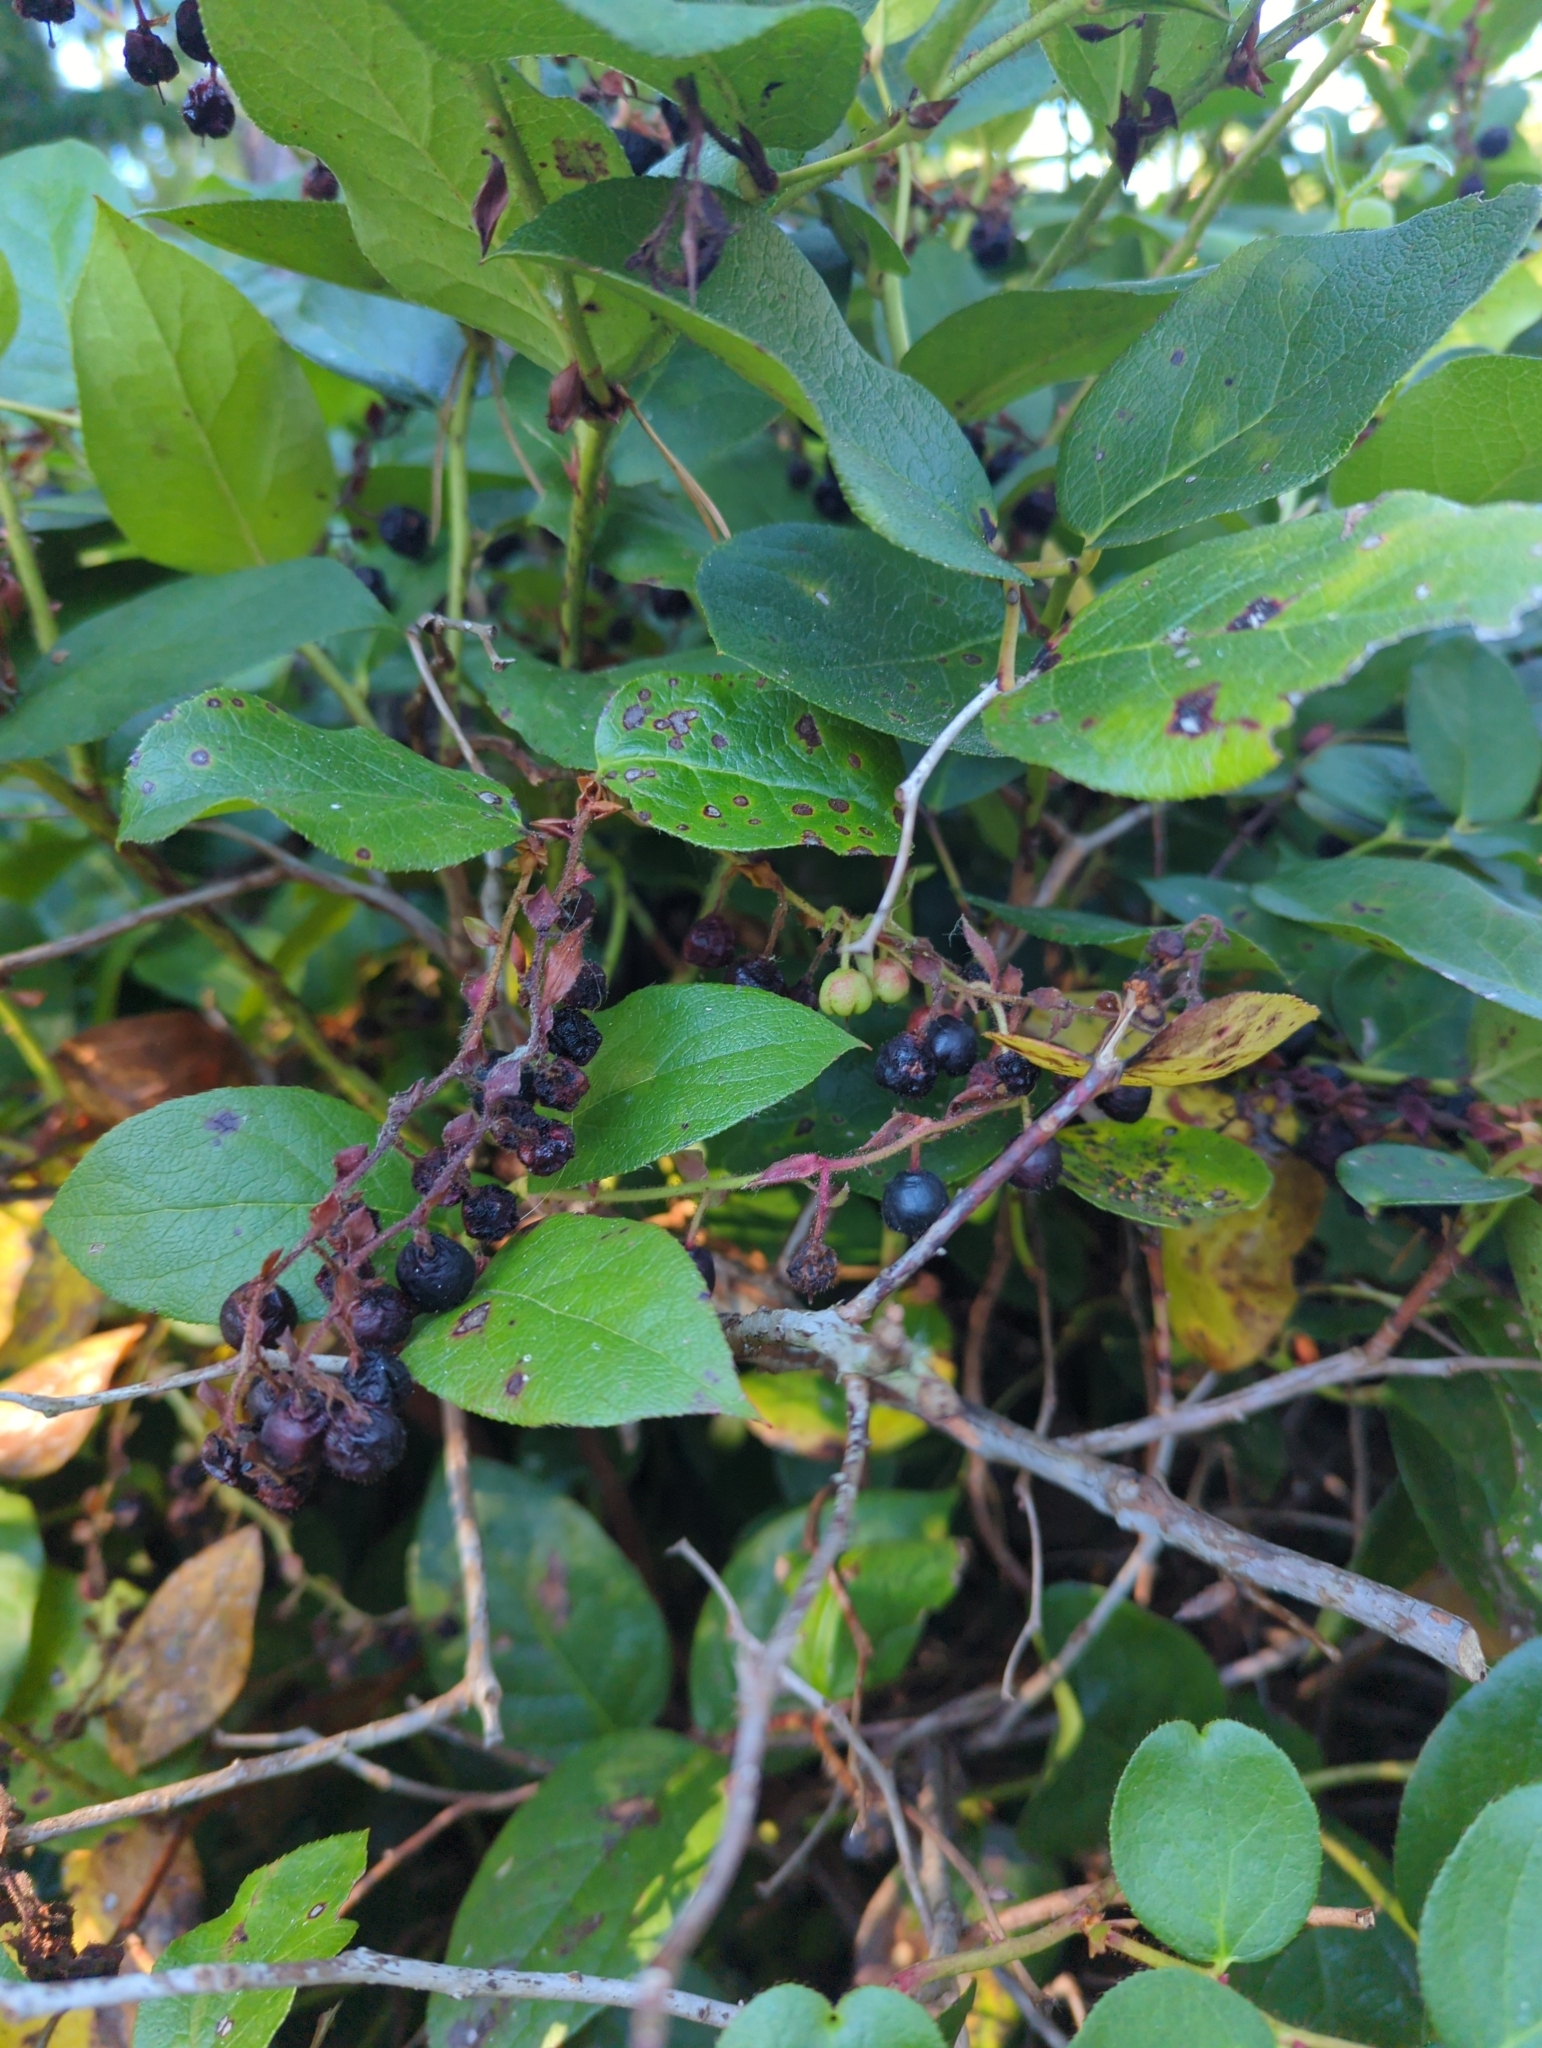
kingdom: Plantae
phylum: Tracheophyta
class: Magnoliopsida
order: Ericales
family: Ericaceae
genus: Gaultheria
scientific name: Gaultheria shallon
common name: Shallon
